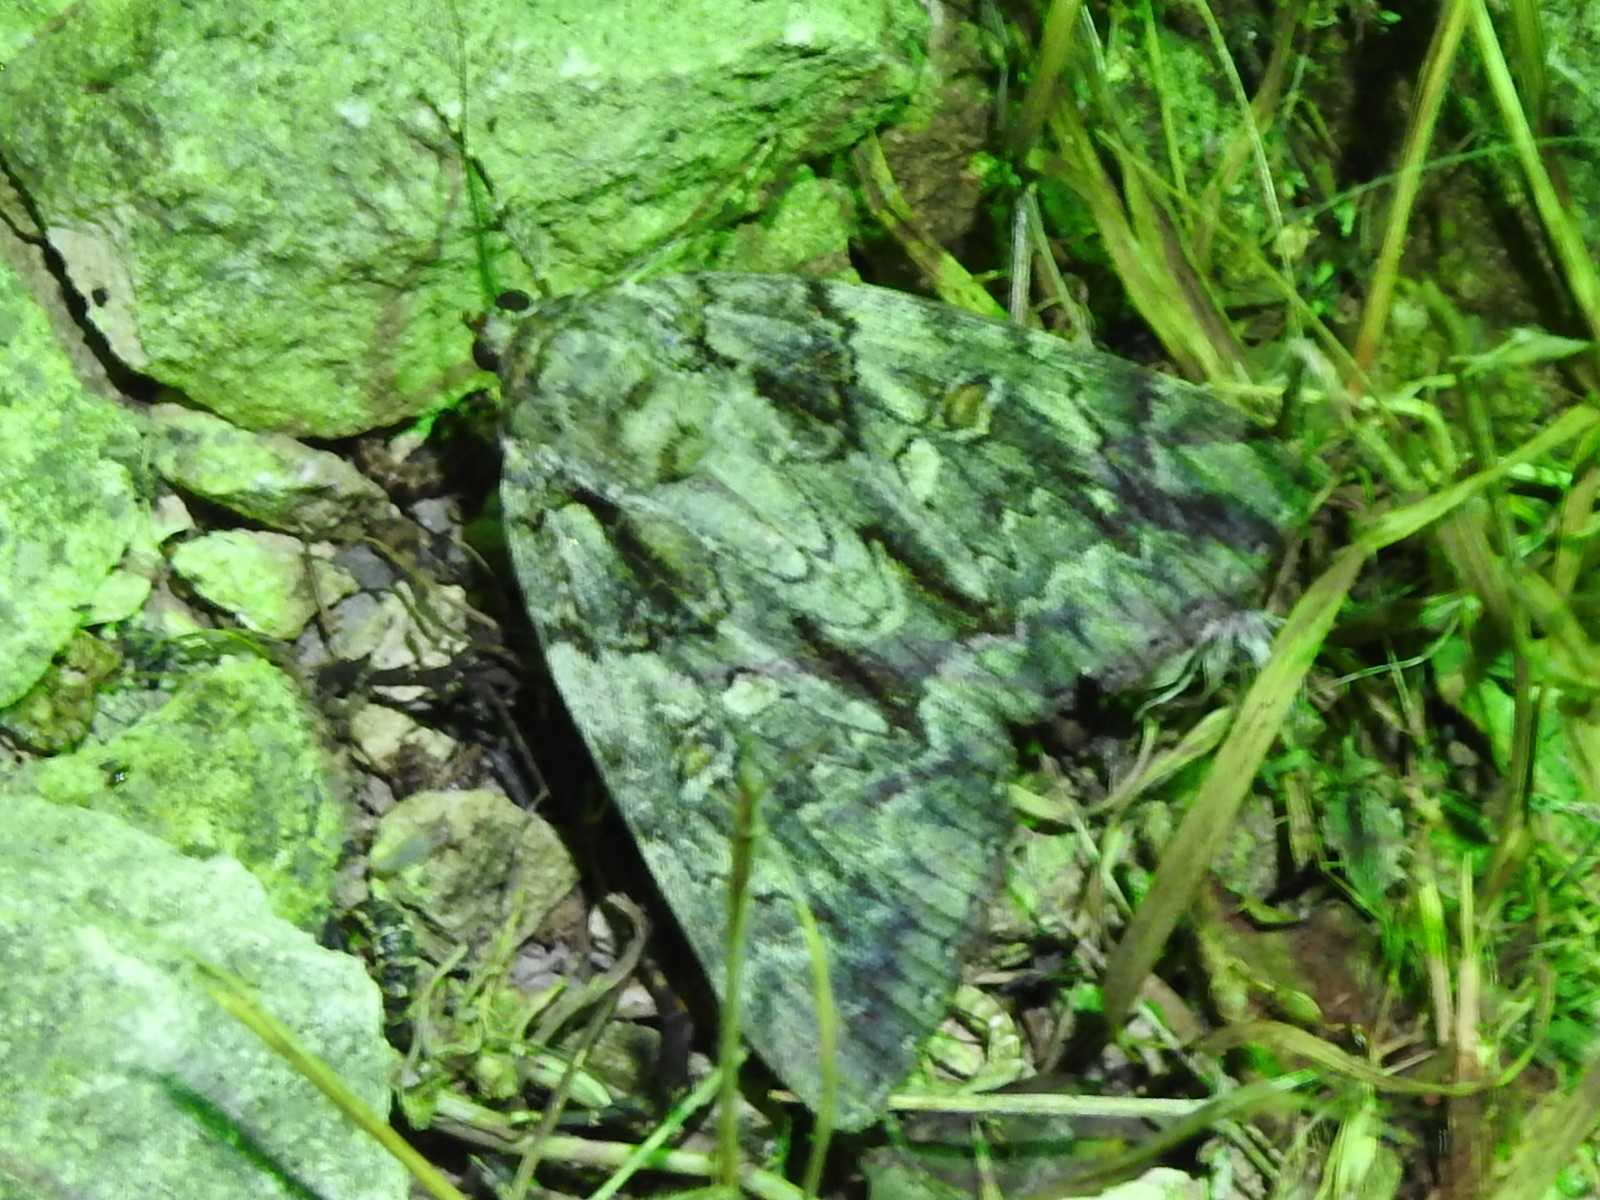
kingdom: Animalia
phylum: Arthropoda
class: Insecta
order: Lepidoptera
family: Erebidae
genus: Catocala
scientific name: Catocala neogama
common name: Bride underwing
